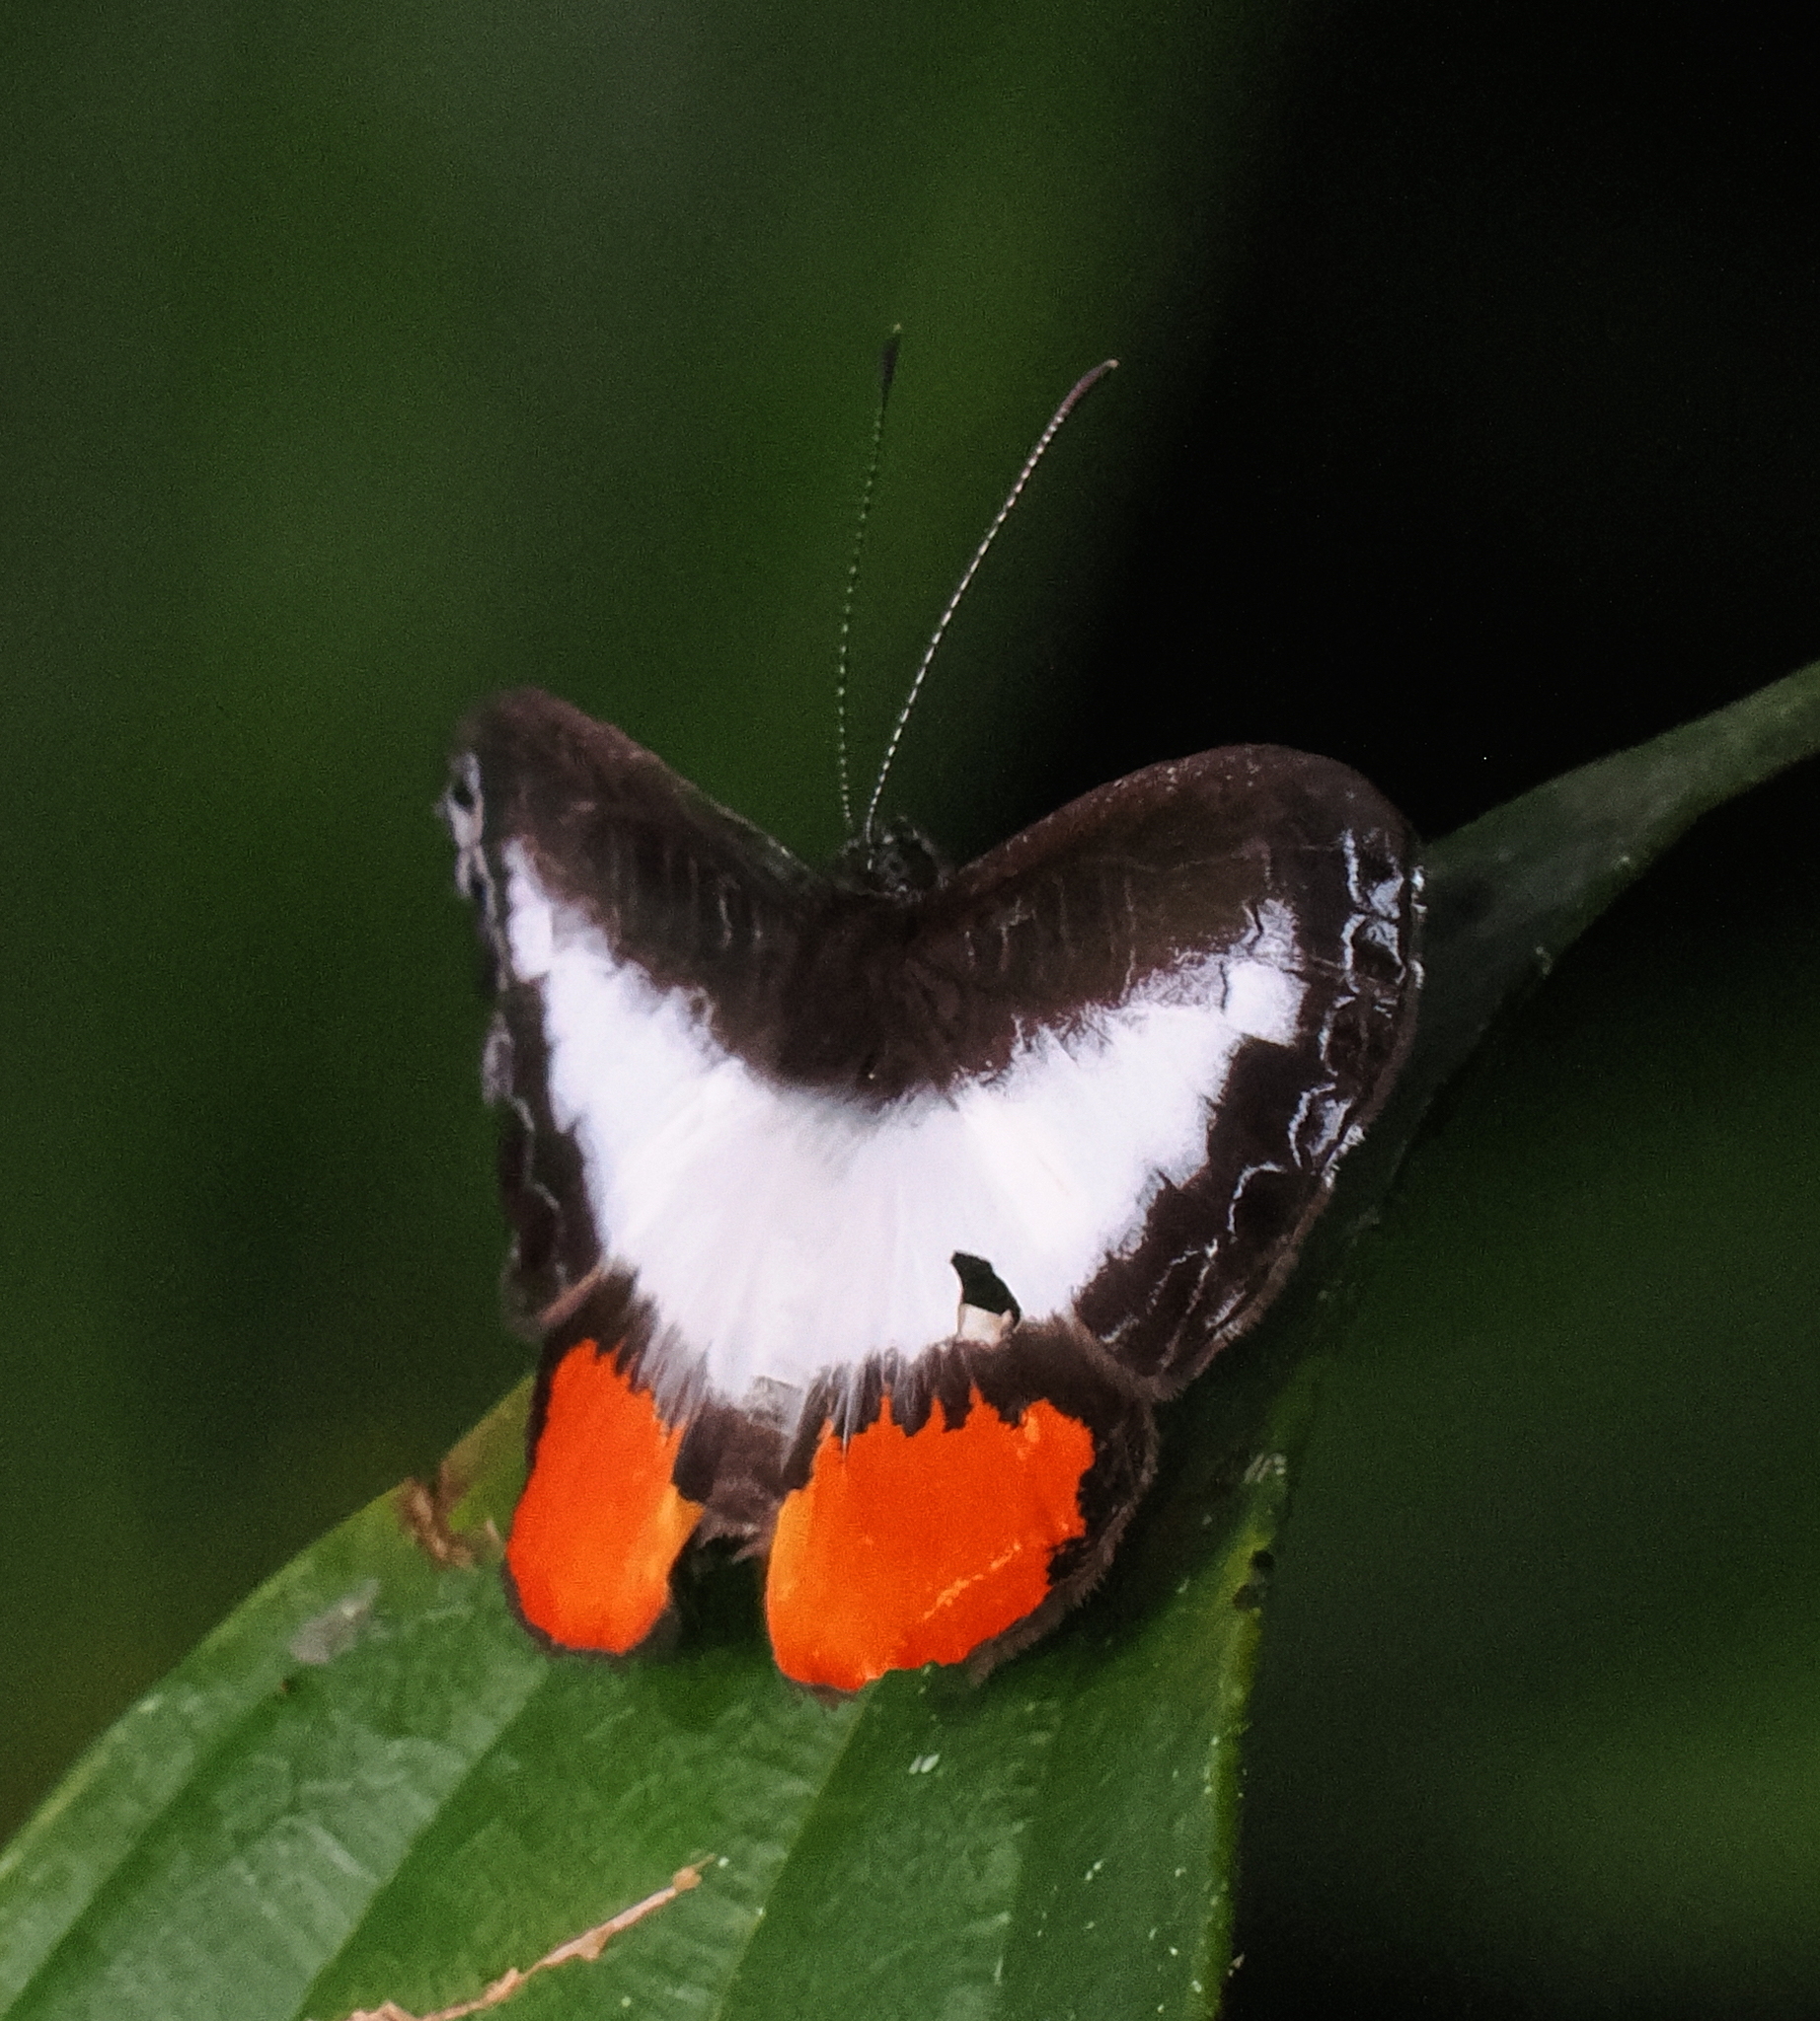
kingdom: Animalia
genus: Nymphidium
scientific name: Nymphidium balbinus
